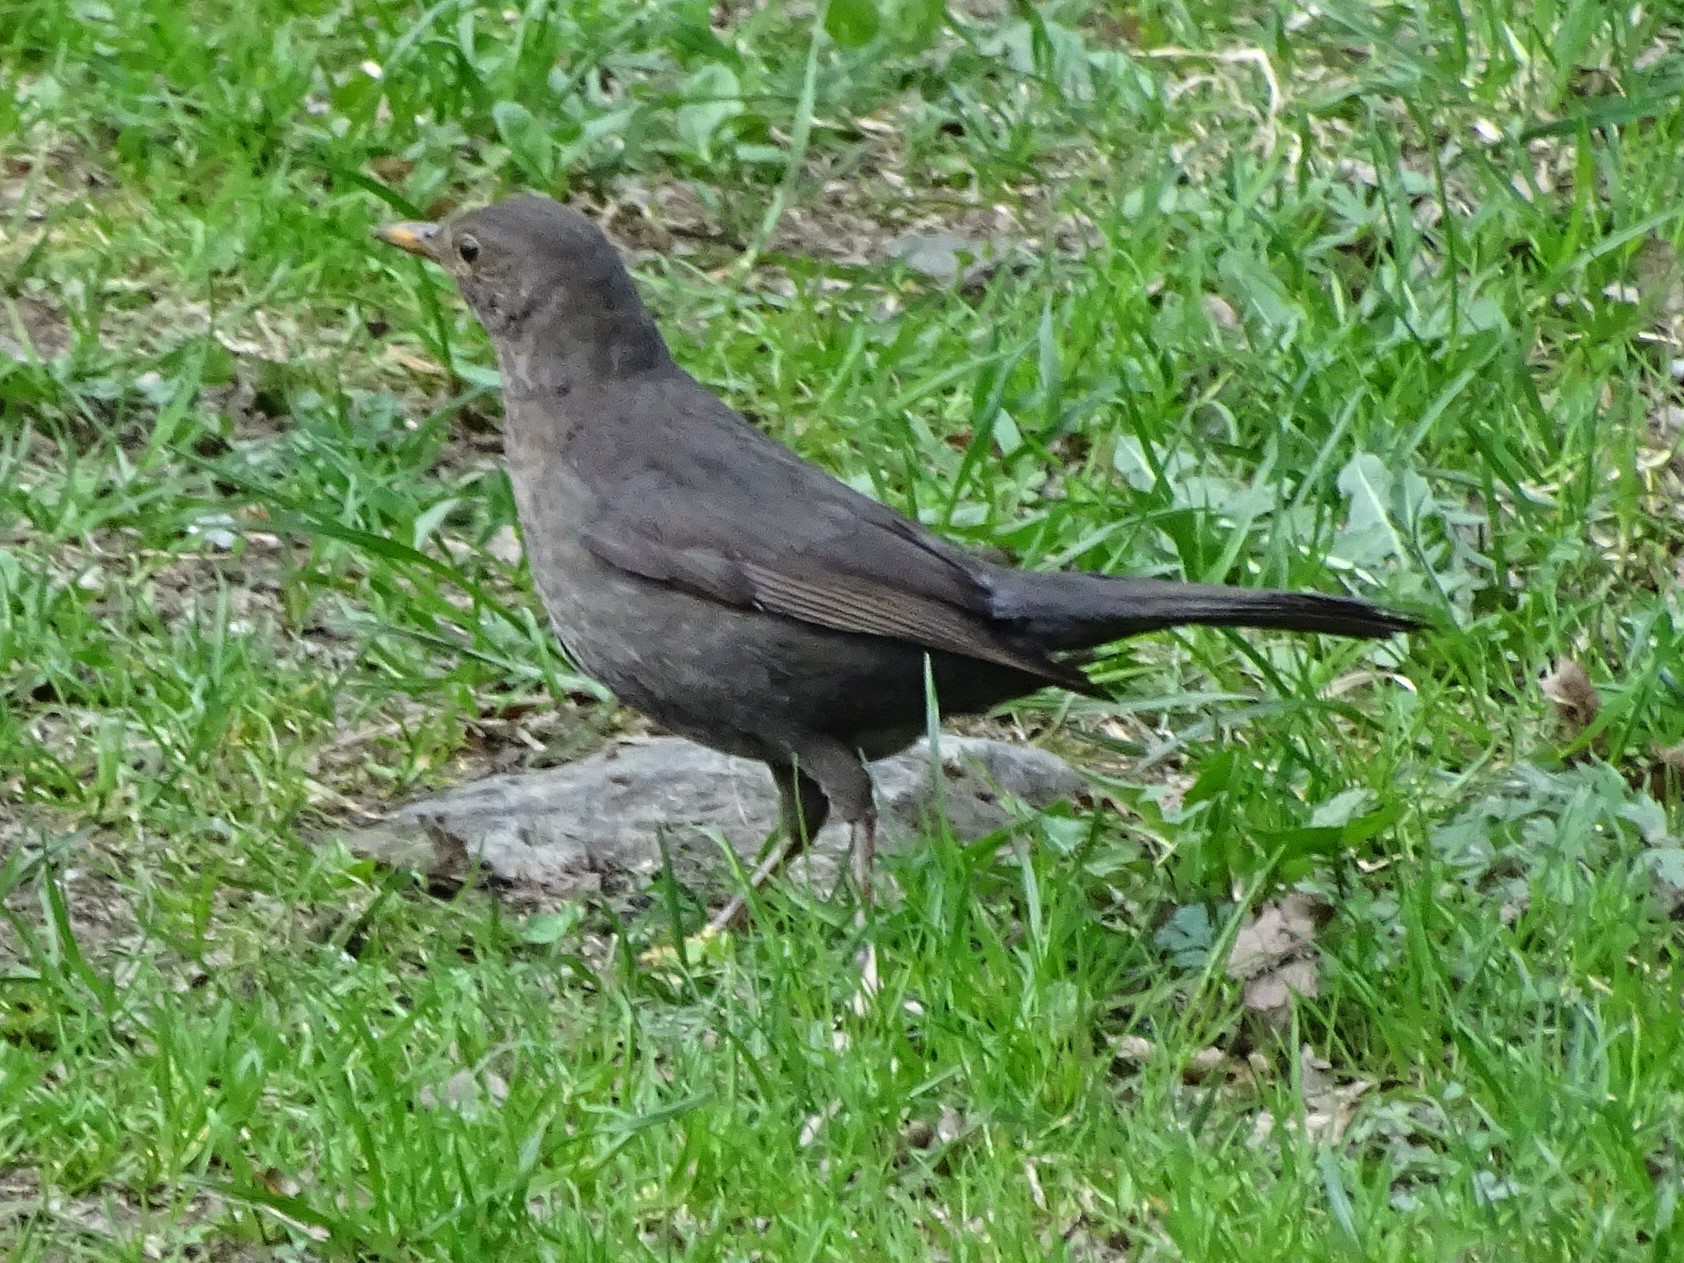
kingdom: Animalia
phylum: Chordata
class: Aves
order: Passeriformes
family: Turdidae
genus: Turdus
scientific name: Turdus merula
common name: Common blackbird
